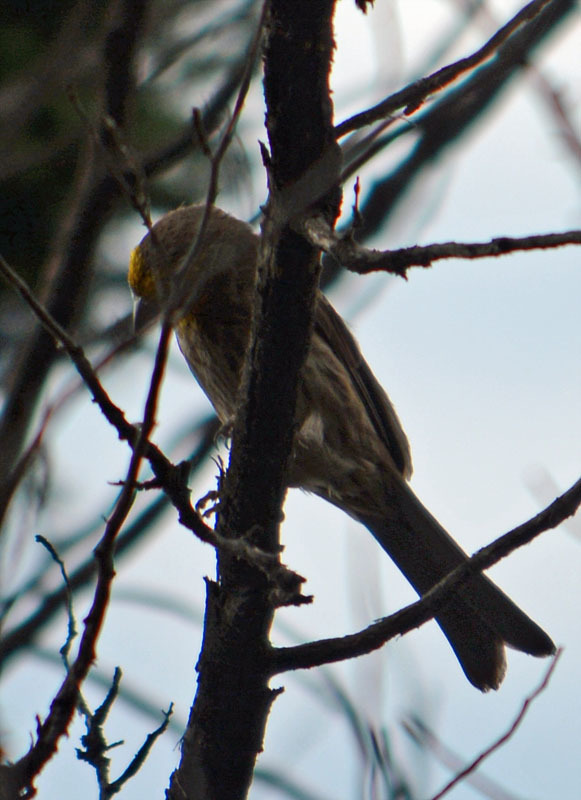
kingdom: Animalia
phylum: Chordata
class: Aves
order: Passeriformes
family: Fringillidae
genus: Haemorhous
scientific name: Haemorhous mexicanus
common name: House finch
